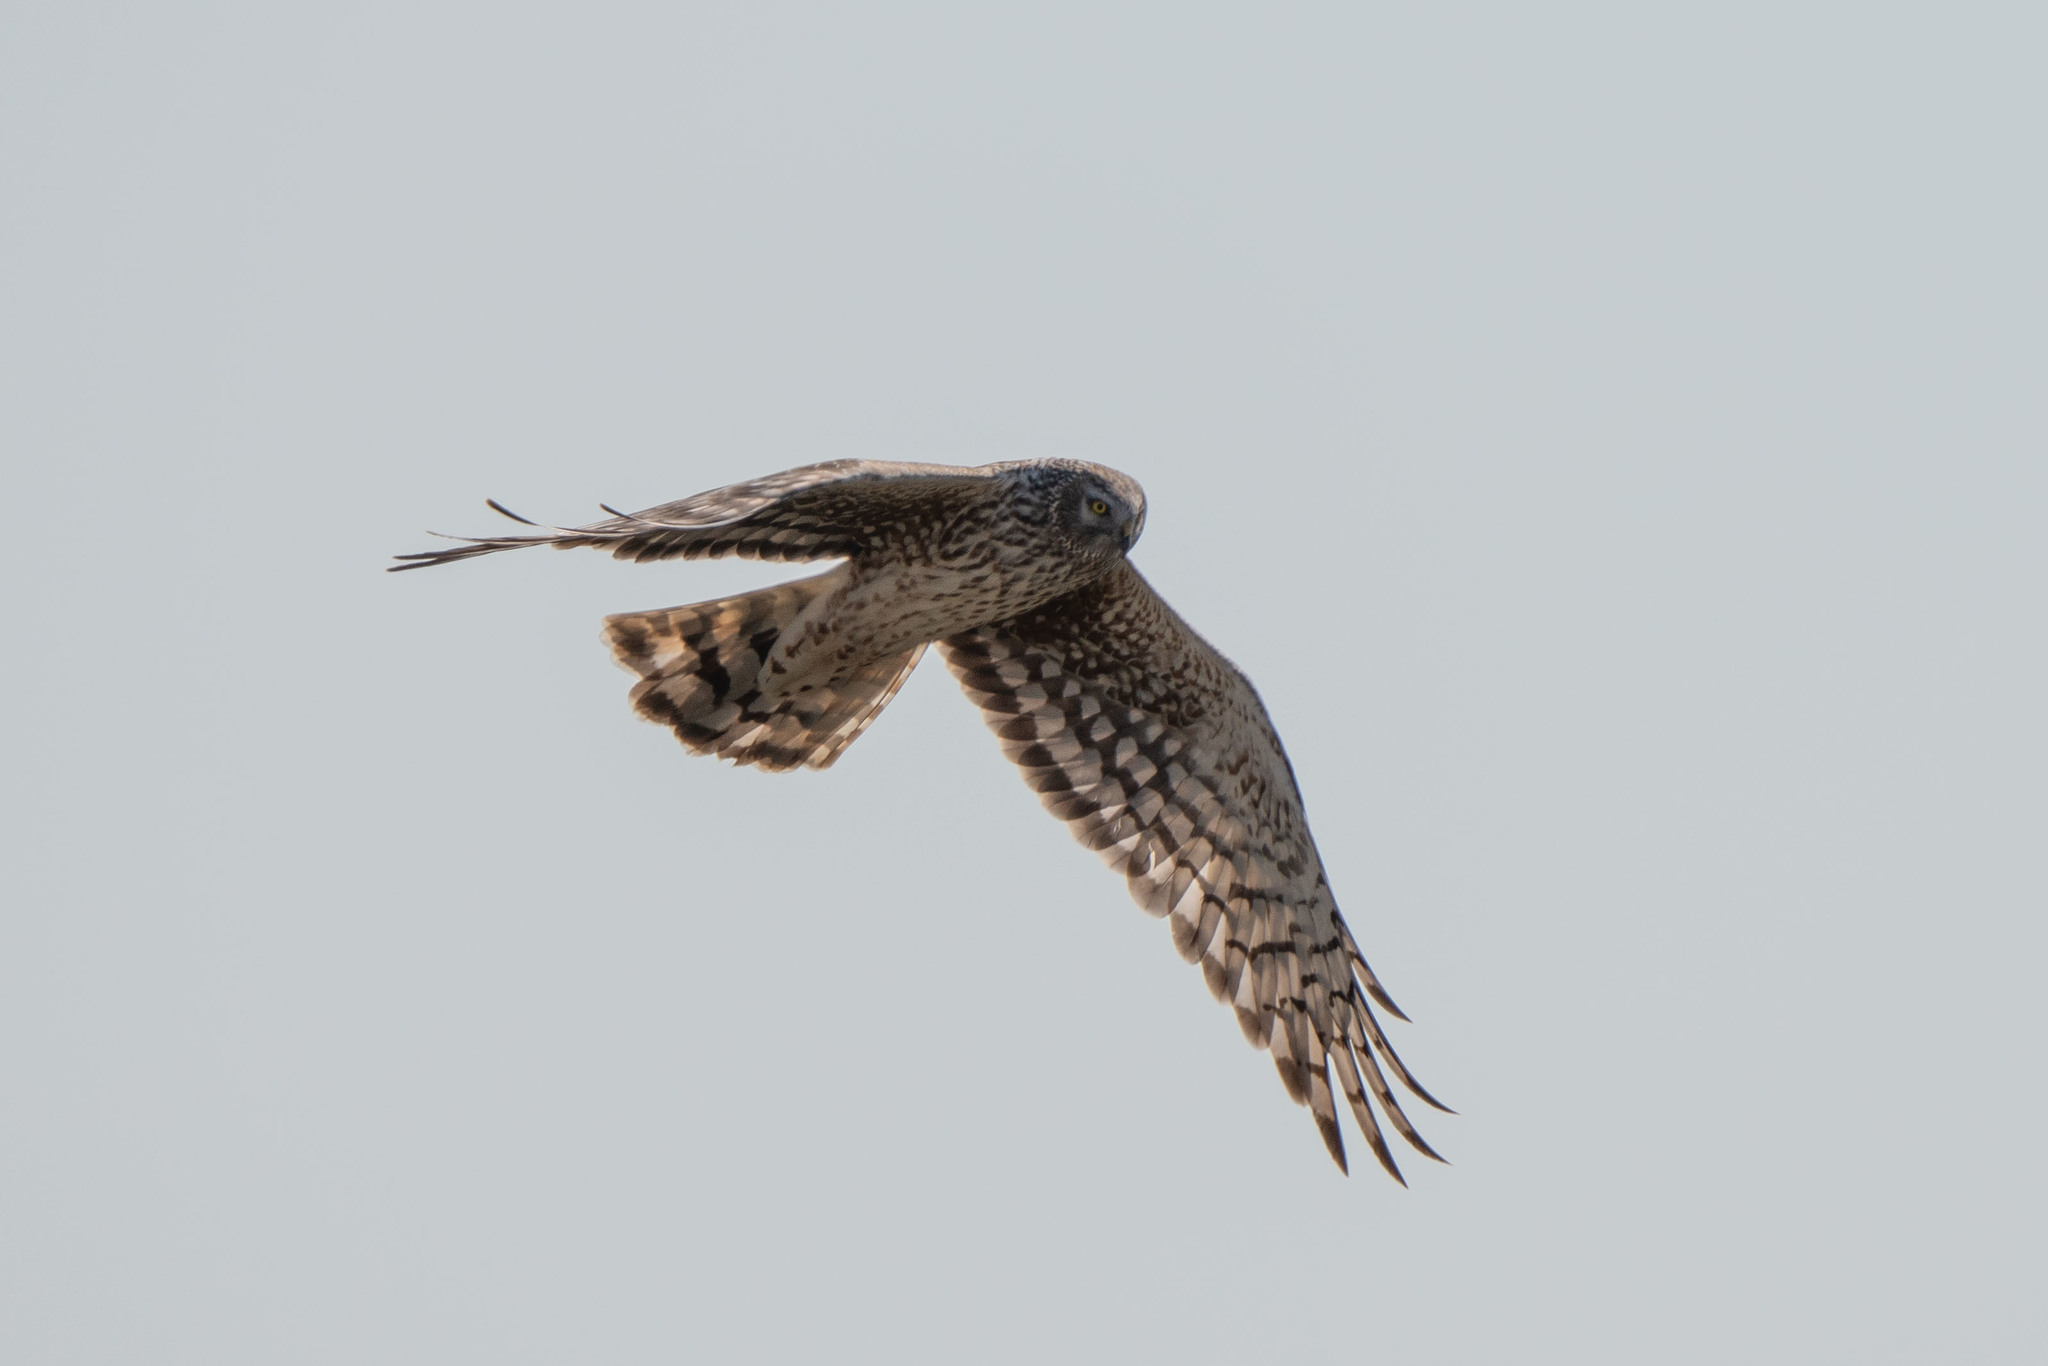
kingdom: Animalia
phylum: Chordata
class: Aves
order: Accipitriformes
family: Accipitridae
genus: Circus
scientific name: Circus cyaneus
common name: Hen harrier
